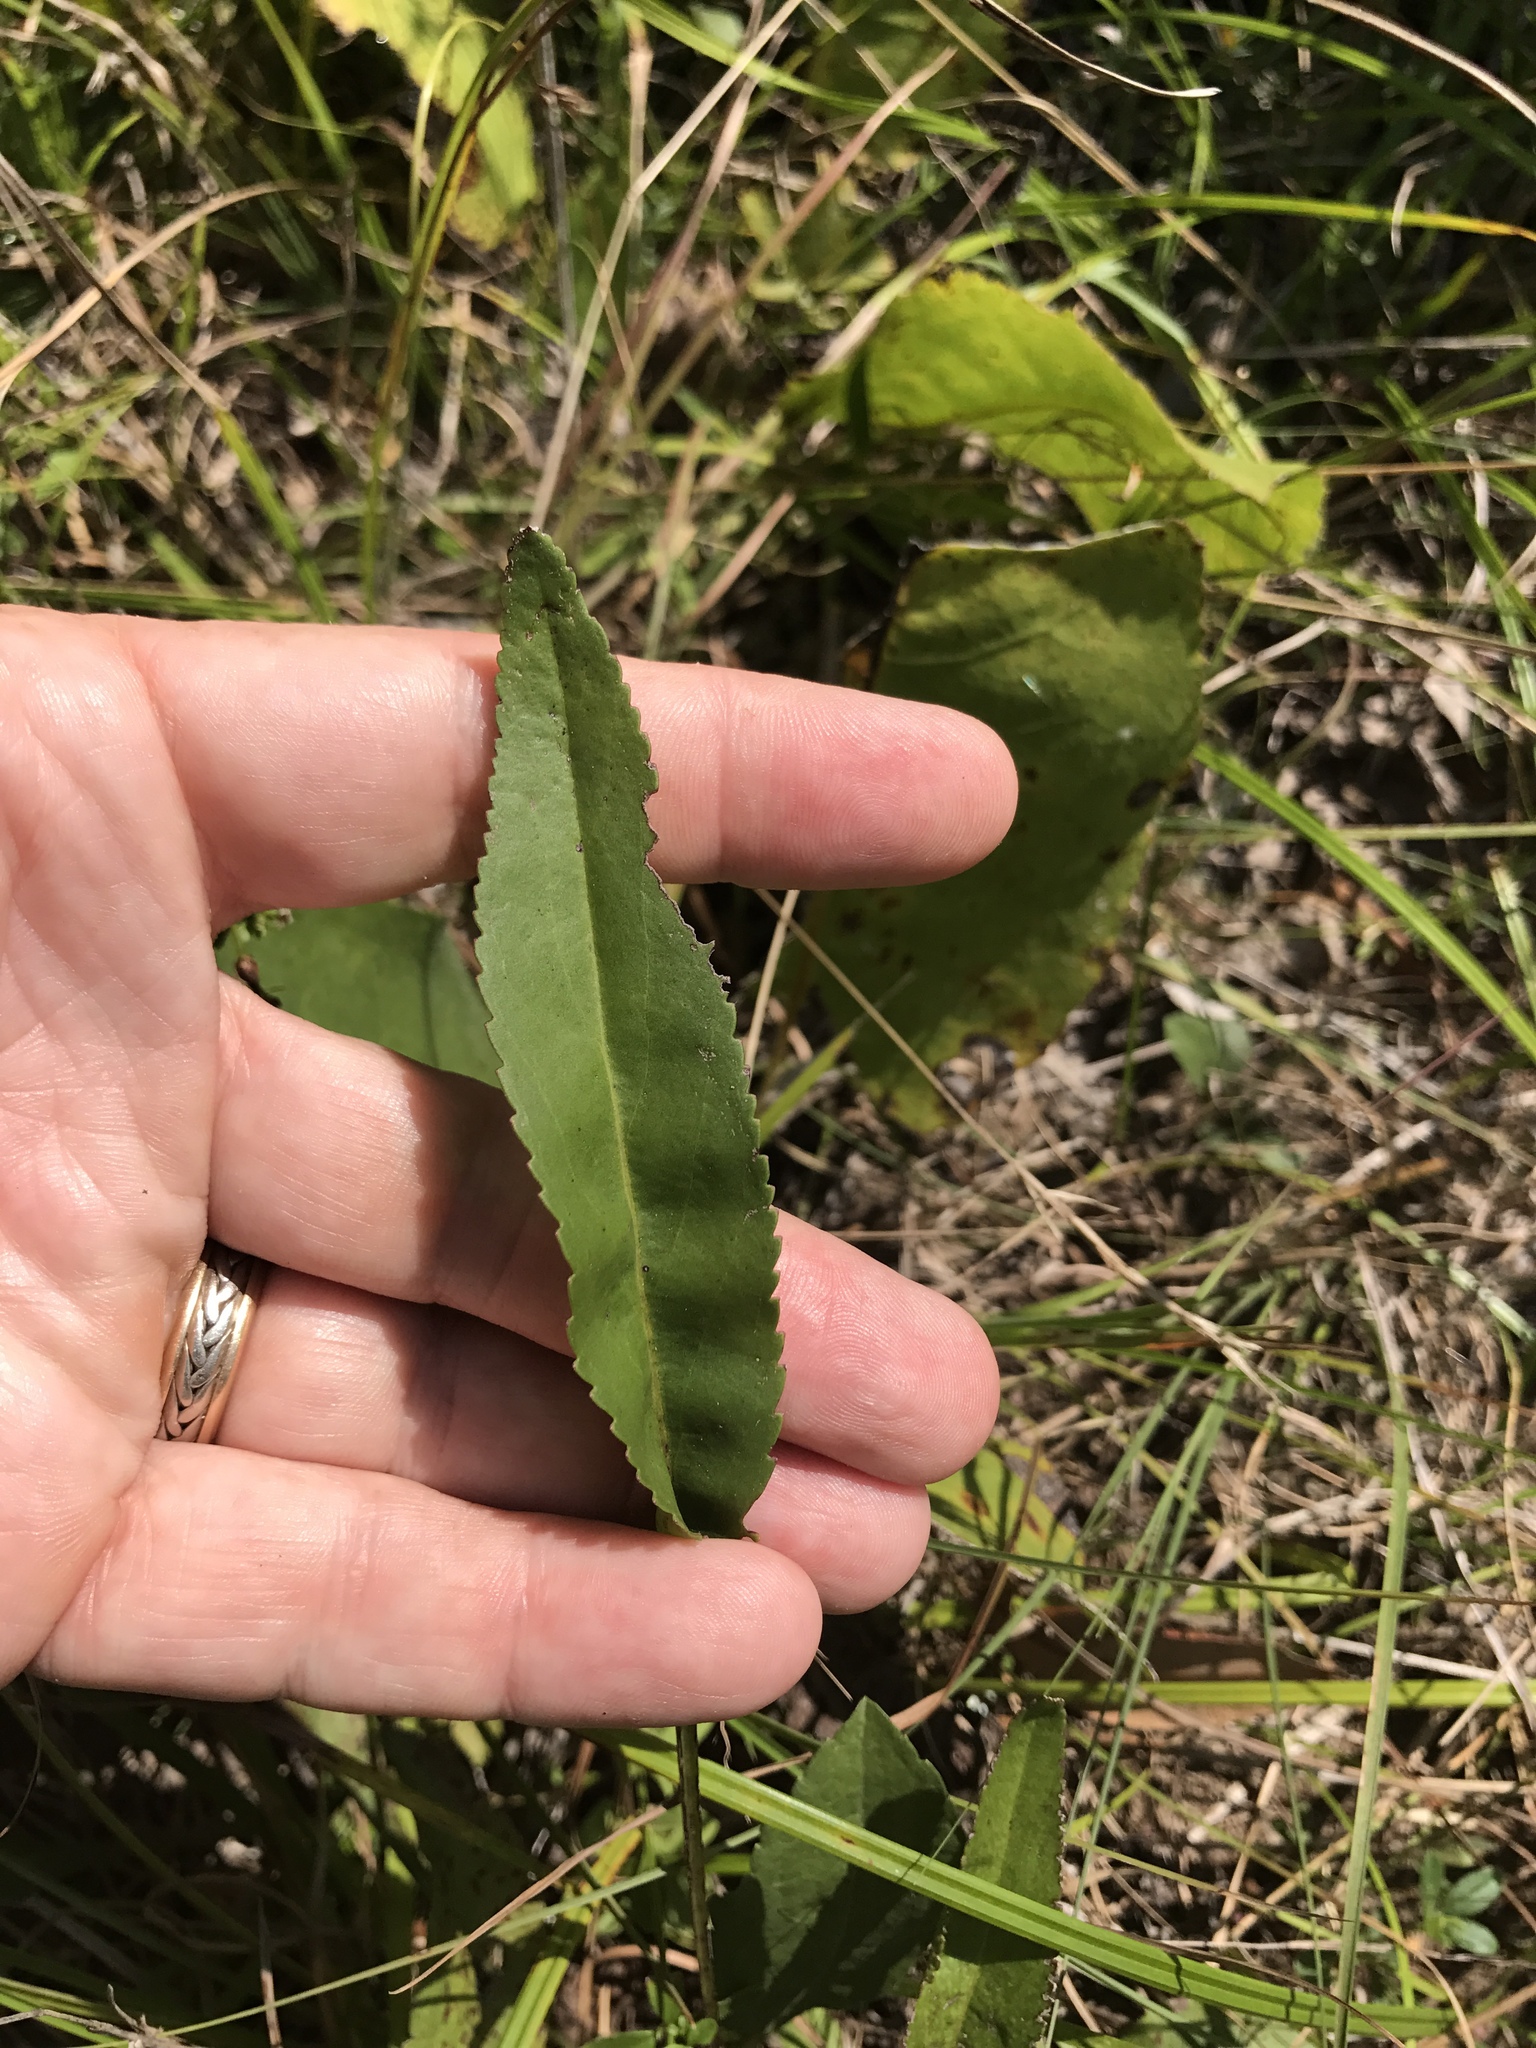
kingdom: Plantae
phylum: Tracheophyta
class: Magnoliopsida
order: Asterales
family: Asteraceae
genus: Packera
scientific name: Packera anonyma
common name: Small ragwort
